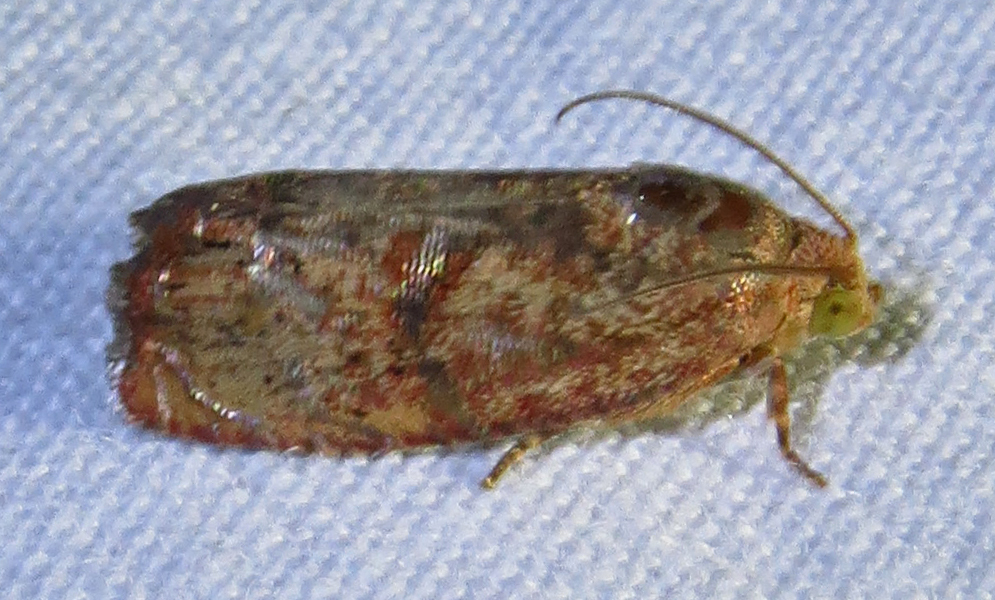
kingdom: Animalia
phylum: Arthropoda
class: Insecta
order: Lepidoptera
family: Tortricidae
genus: Cydia
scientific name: Cydia latiferreana
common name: Filbertworm moth
